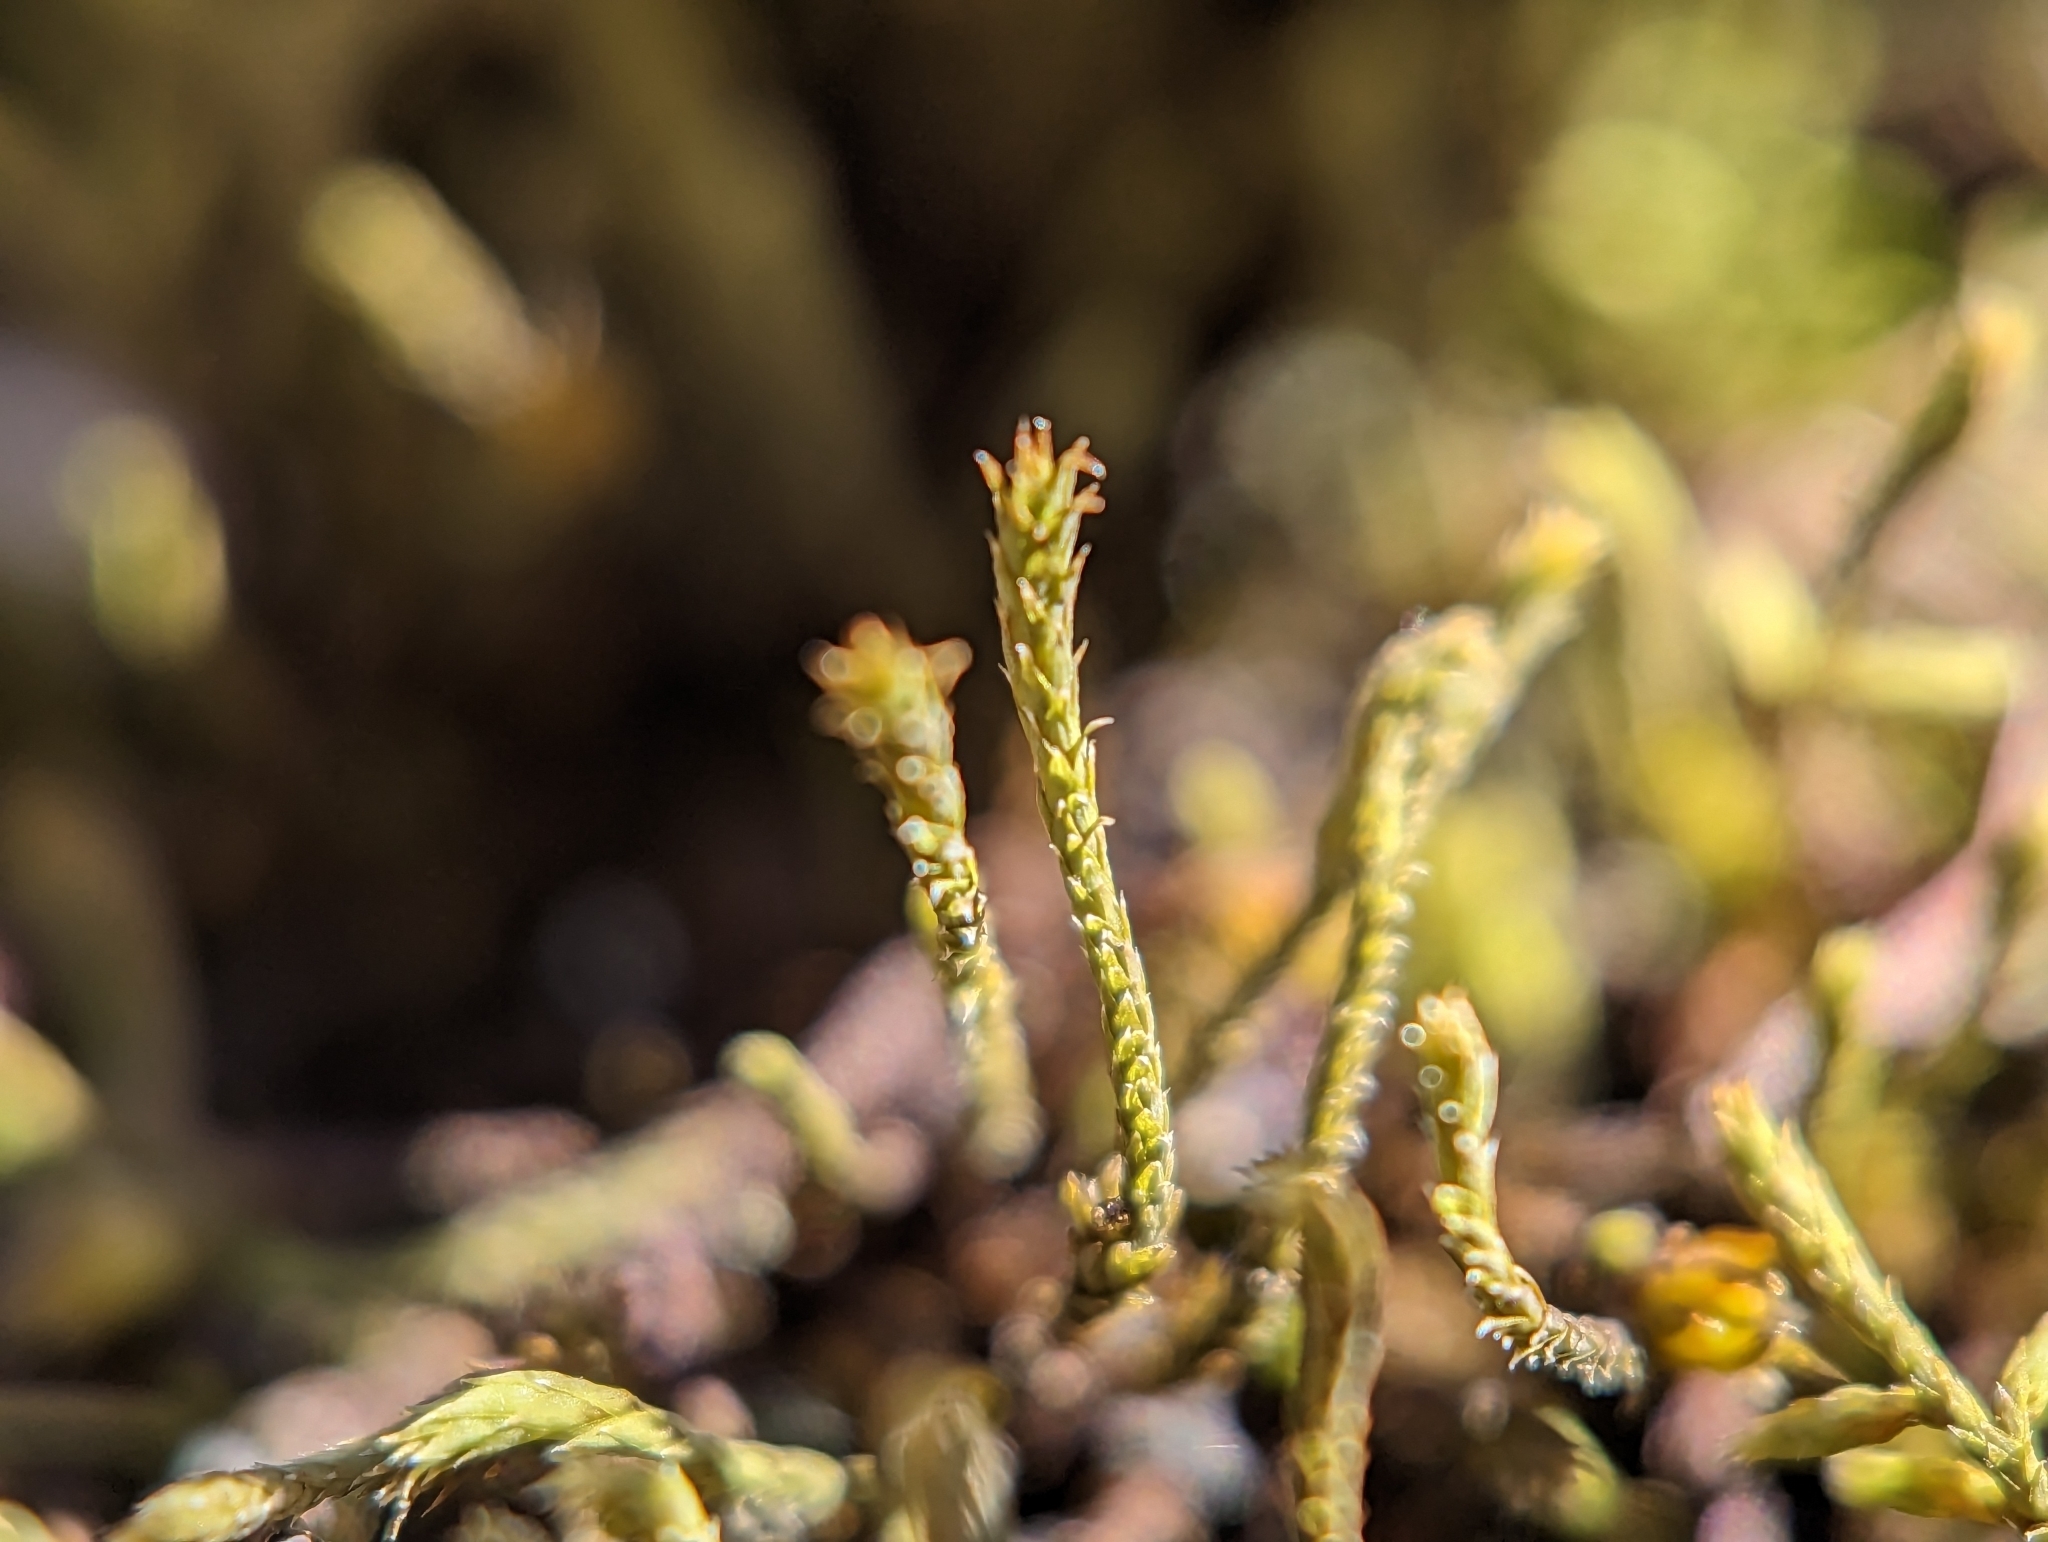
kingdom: Plantae
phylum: Bryophyta
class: Bryopsida
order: Hedwigiales
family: Hedwigiaceae
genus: Hedwigia
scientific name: Hedwigia ciliata
